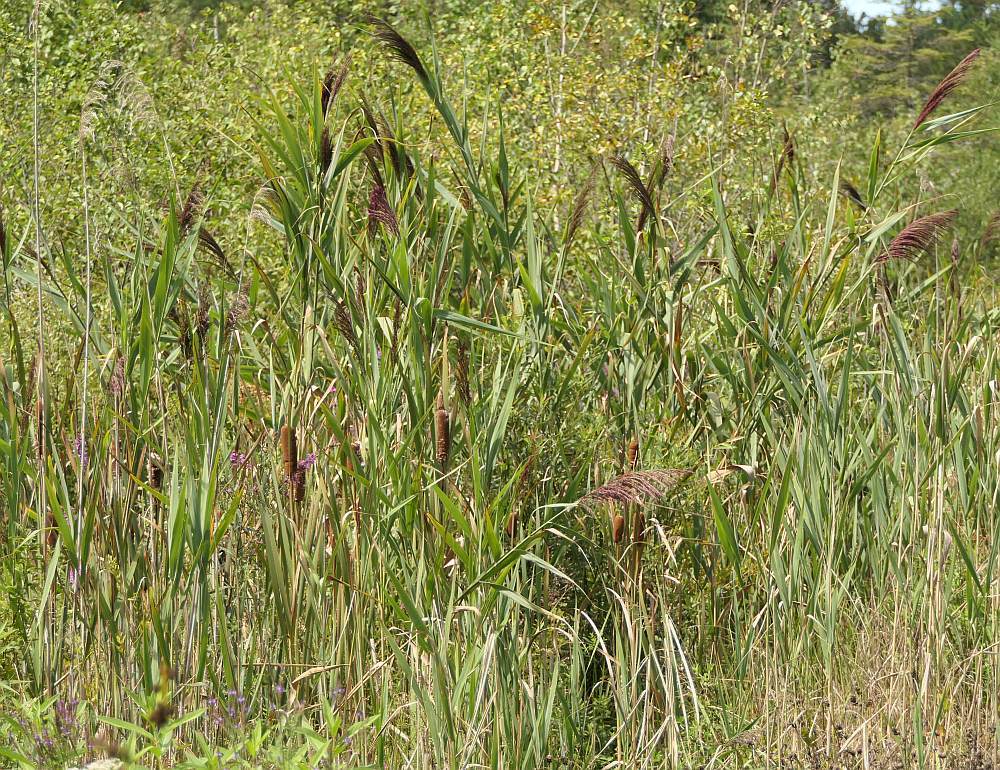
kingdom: Plantae
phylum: Tracheophyta
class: Liliopsida
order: Poales
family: Poaceae
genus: Phragmites
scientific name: Phragmites australis
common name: Common reed
